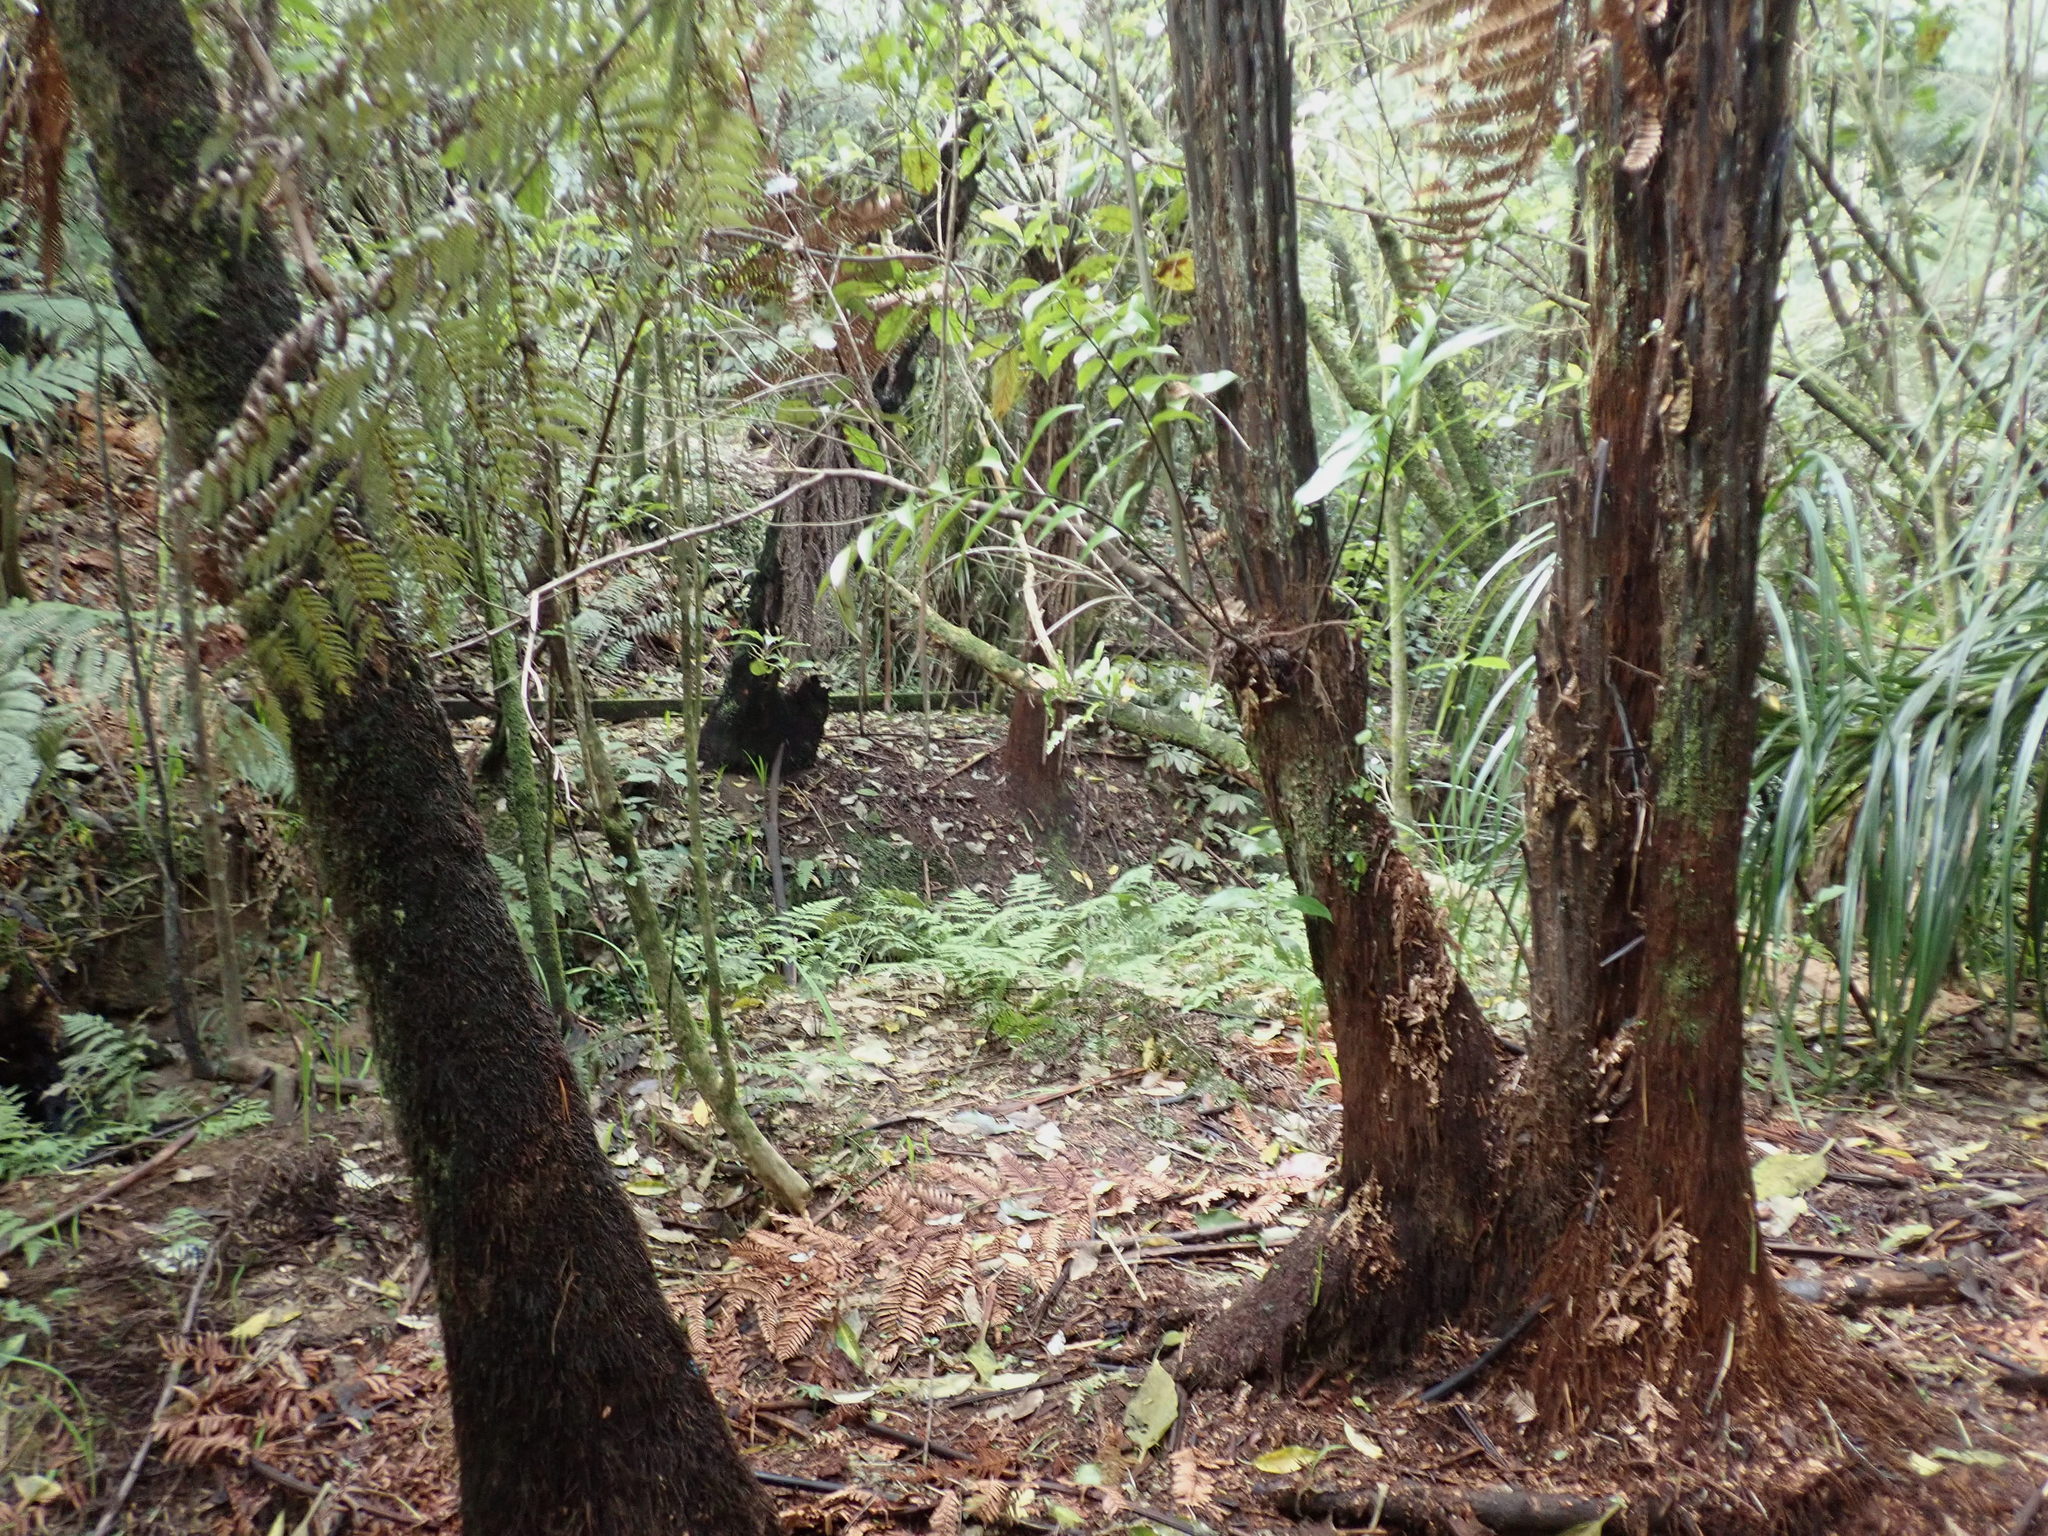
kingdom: Plantae
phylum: Tracheophyta
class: Polypodiopsida
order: Polypodiales
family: Aspleniaceae
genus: Asplenium
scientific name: Asplenium oblongifolium
